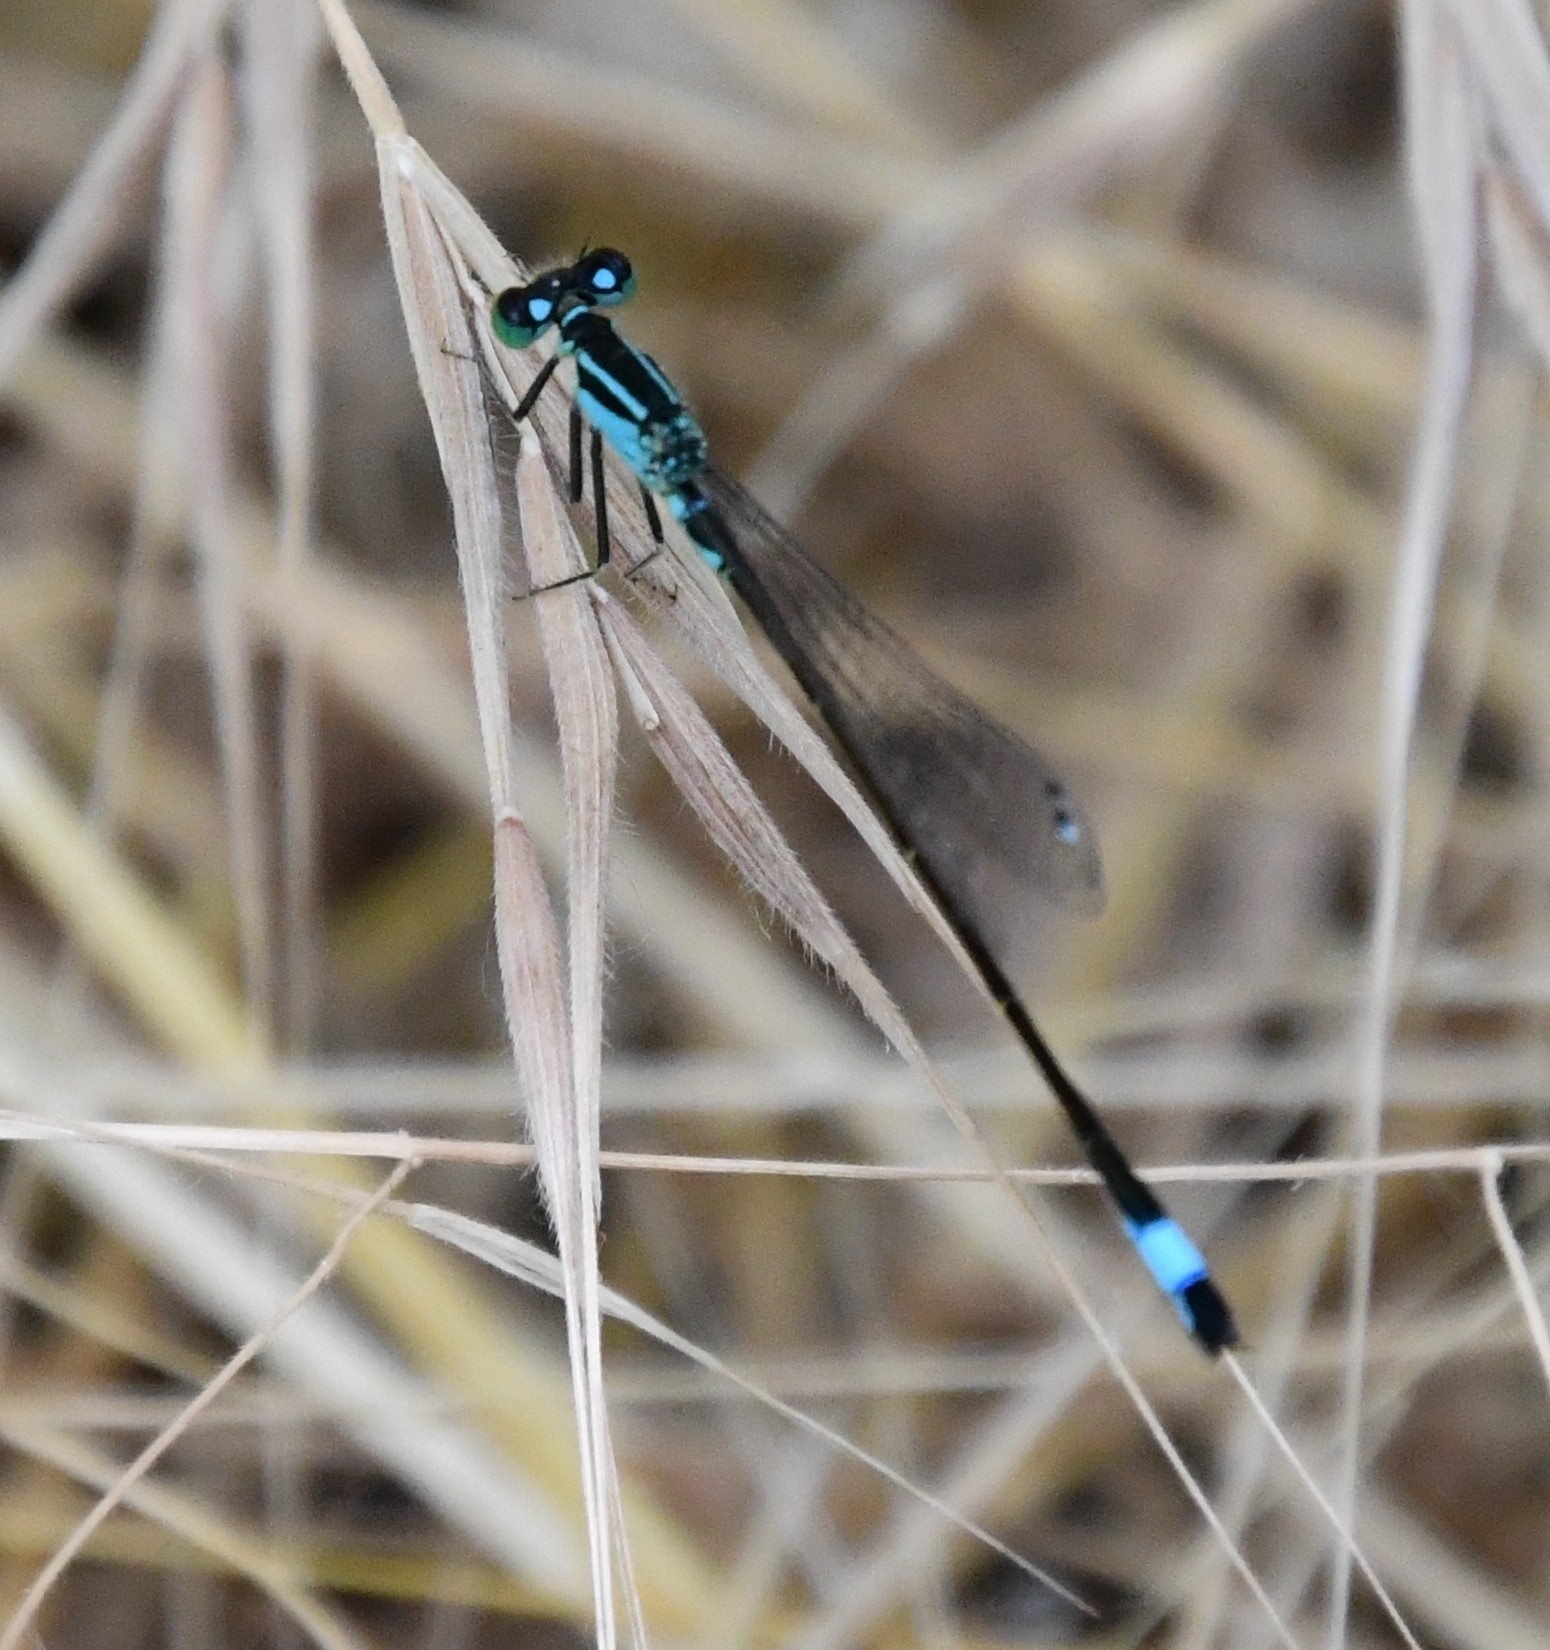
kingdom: Animalia
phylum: Arthropoda
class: Insecta
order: Odonata
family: Coenagrionidae
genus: Ischnura
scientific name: Ischnura elegans
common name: Blue-tailed damselfly
